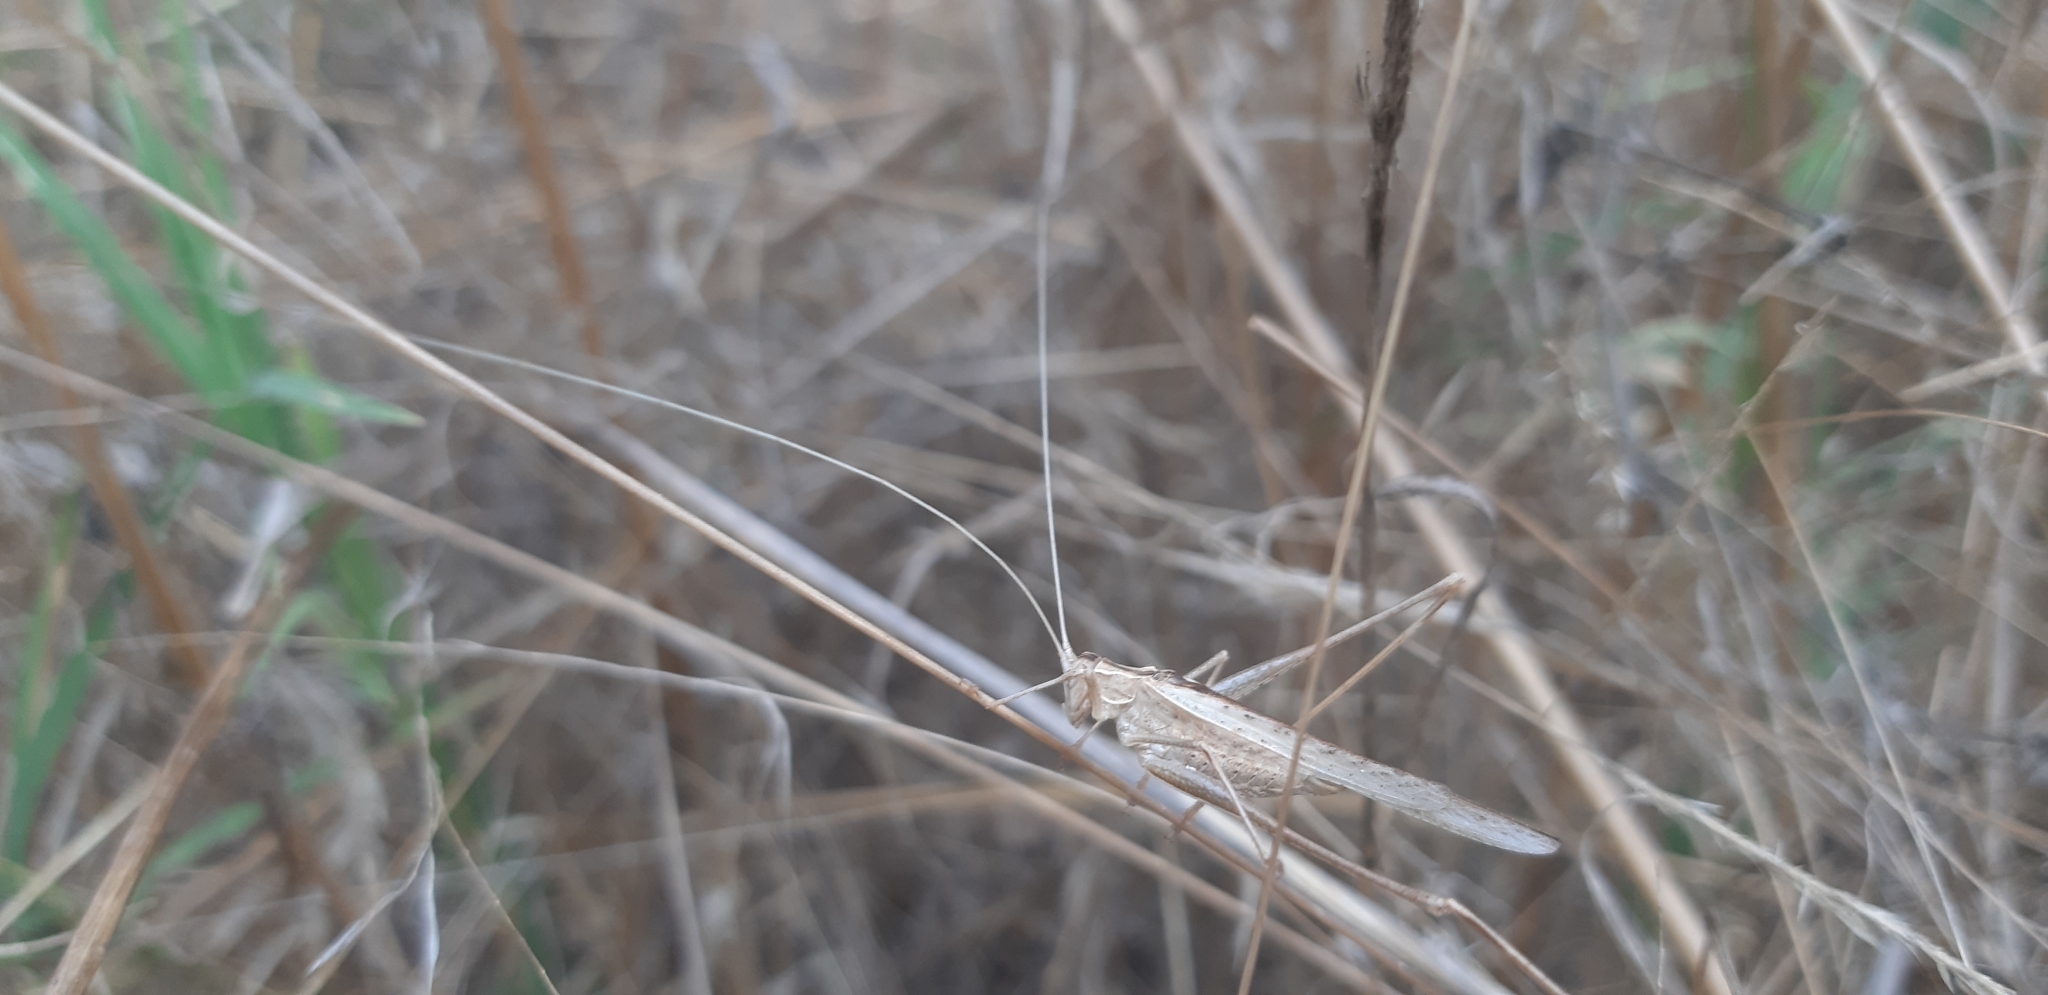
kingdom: Animalia
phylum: Arthropoda
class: Insecta
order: Orthoptera
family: Tettigoniidae
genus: Tylopsis
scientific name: Tylopsis lilifolia
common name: Lily bush-cricket
